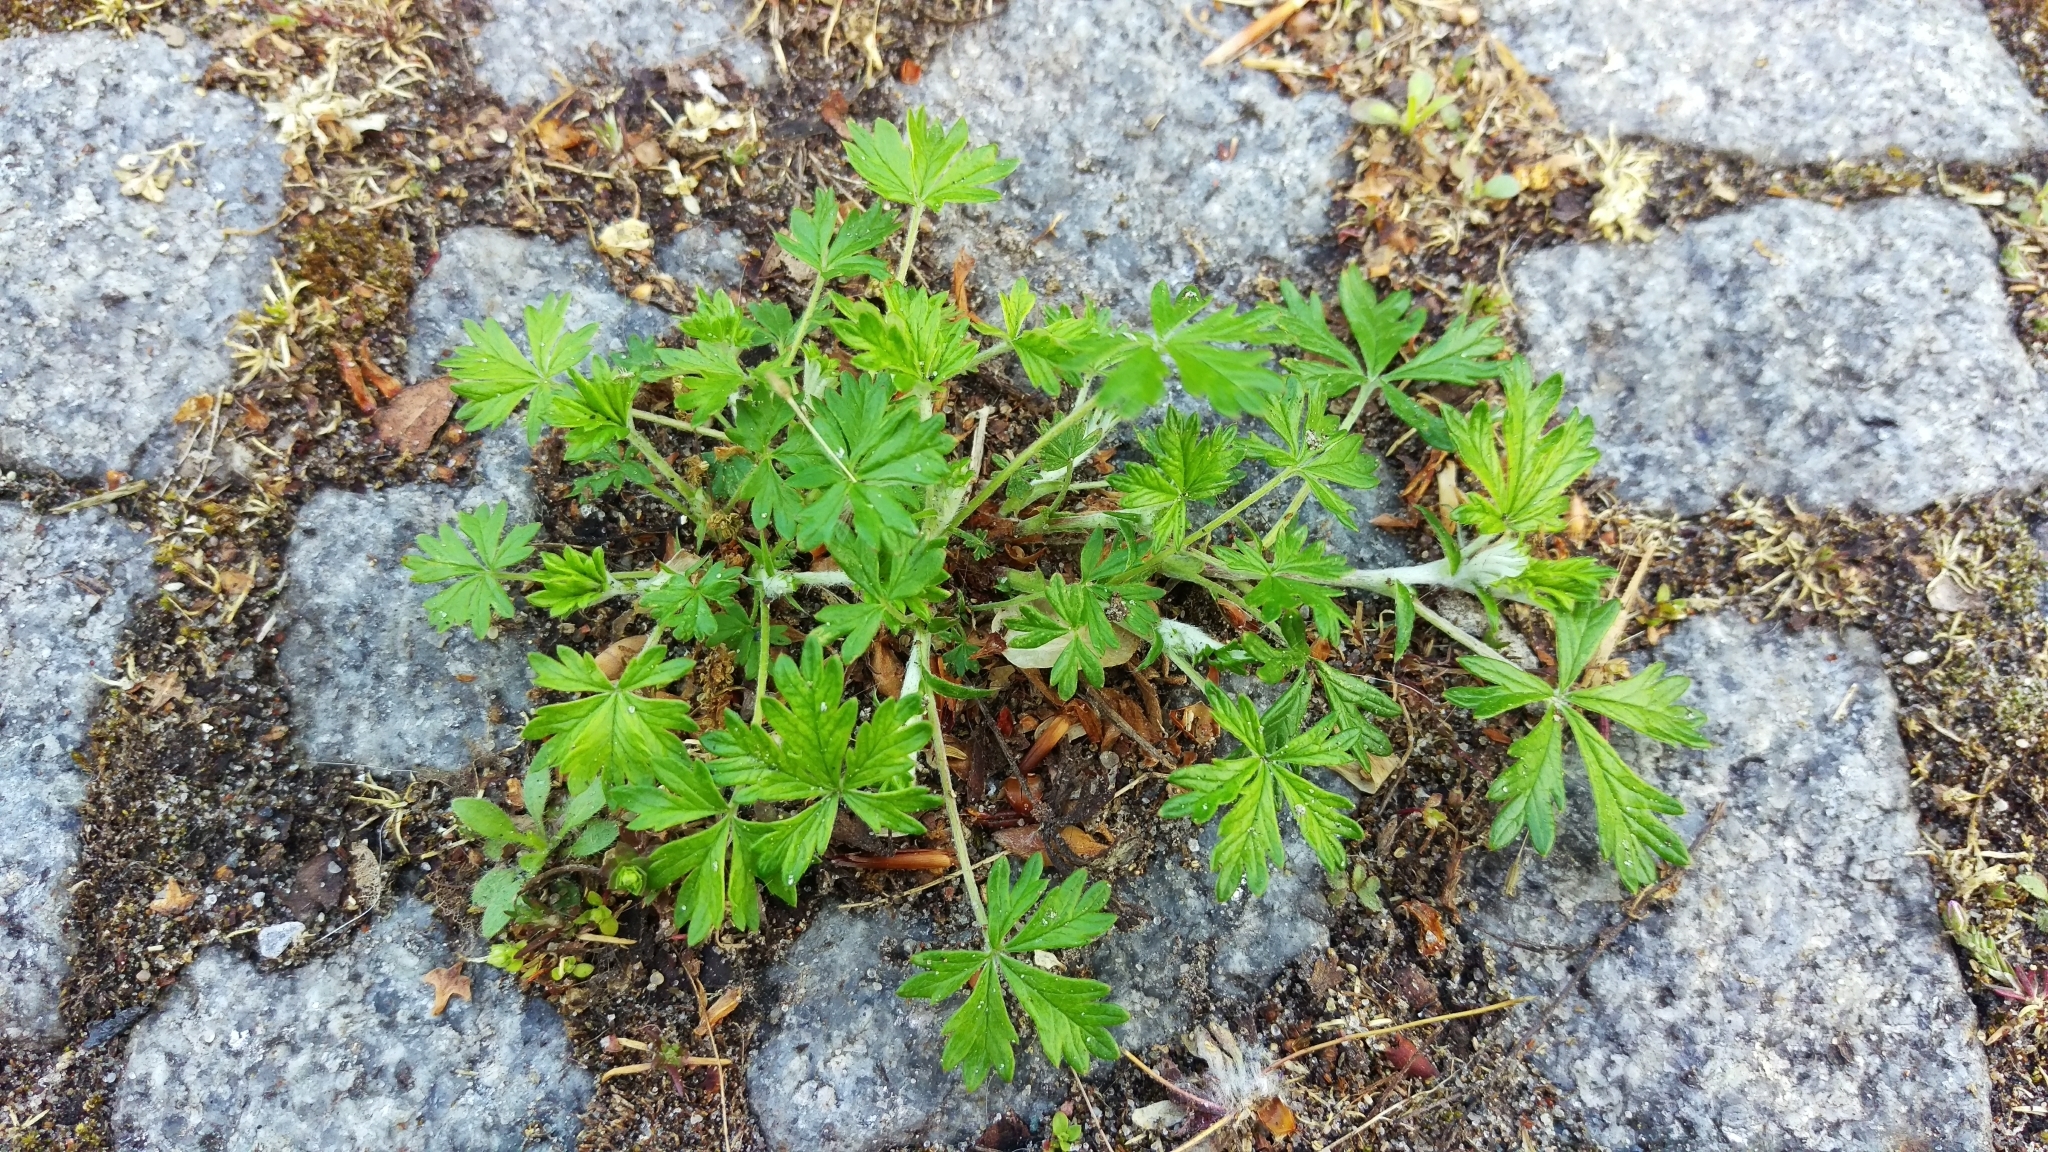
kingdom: Plantae
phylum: Tracheophyta
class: Magnoliopsida
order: Rosales
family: Rosaceae
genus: Potentilla
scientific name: Potentilla argentea
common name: Hoary cinquefoil
